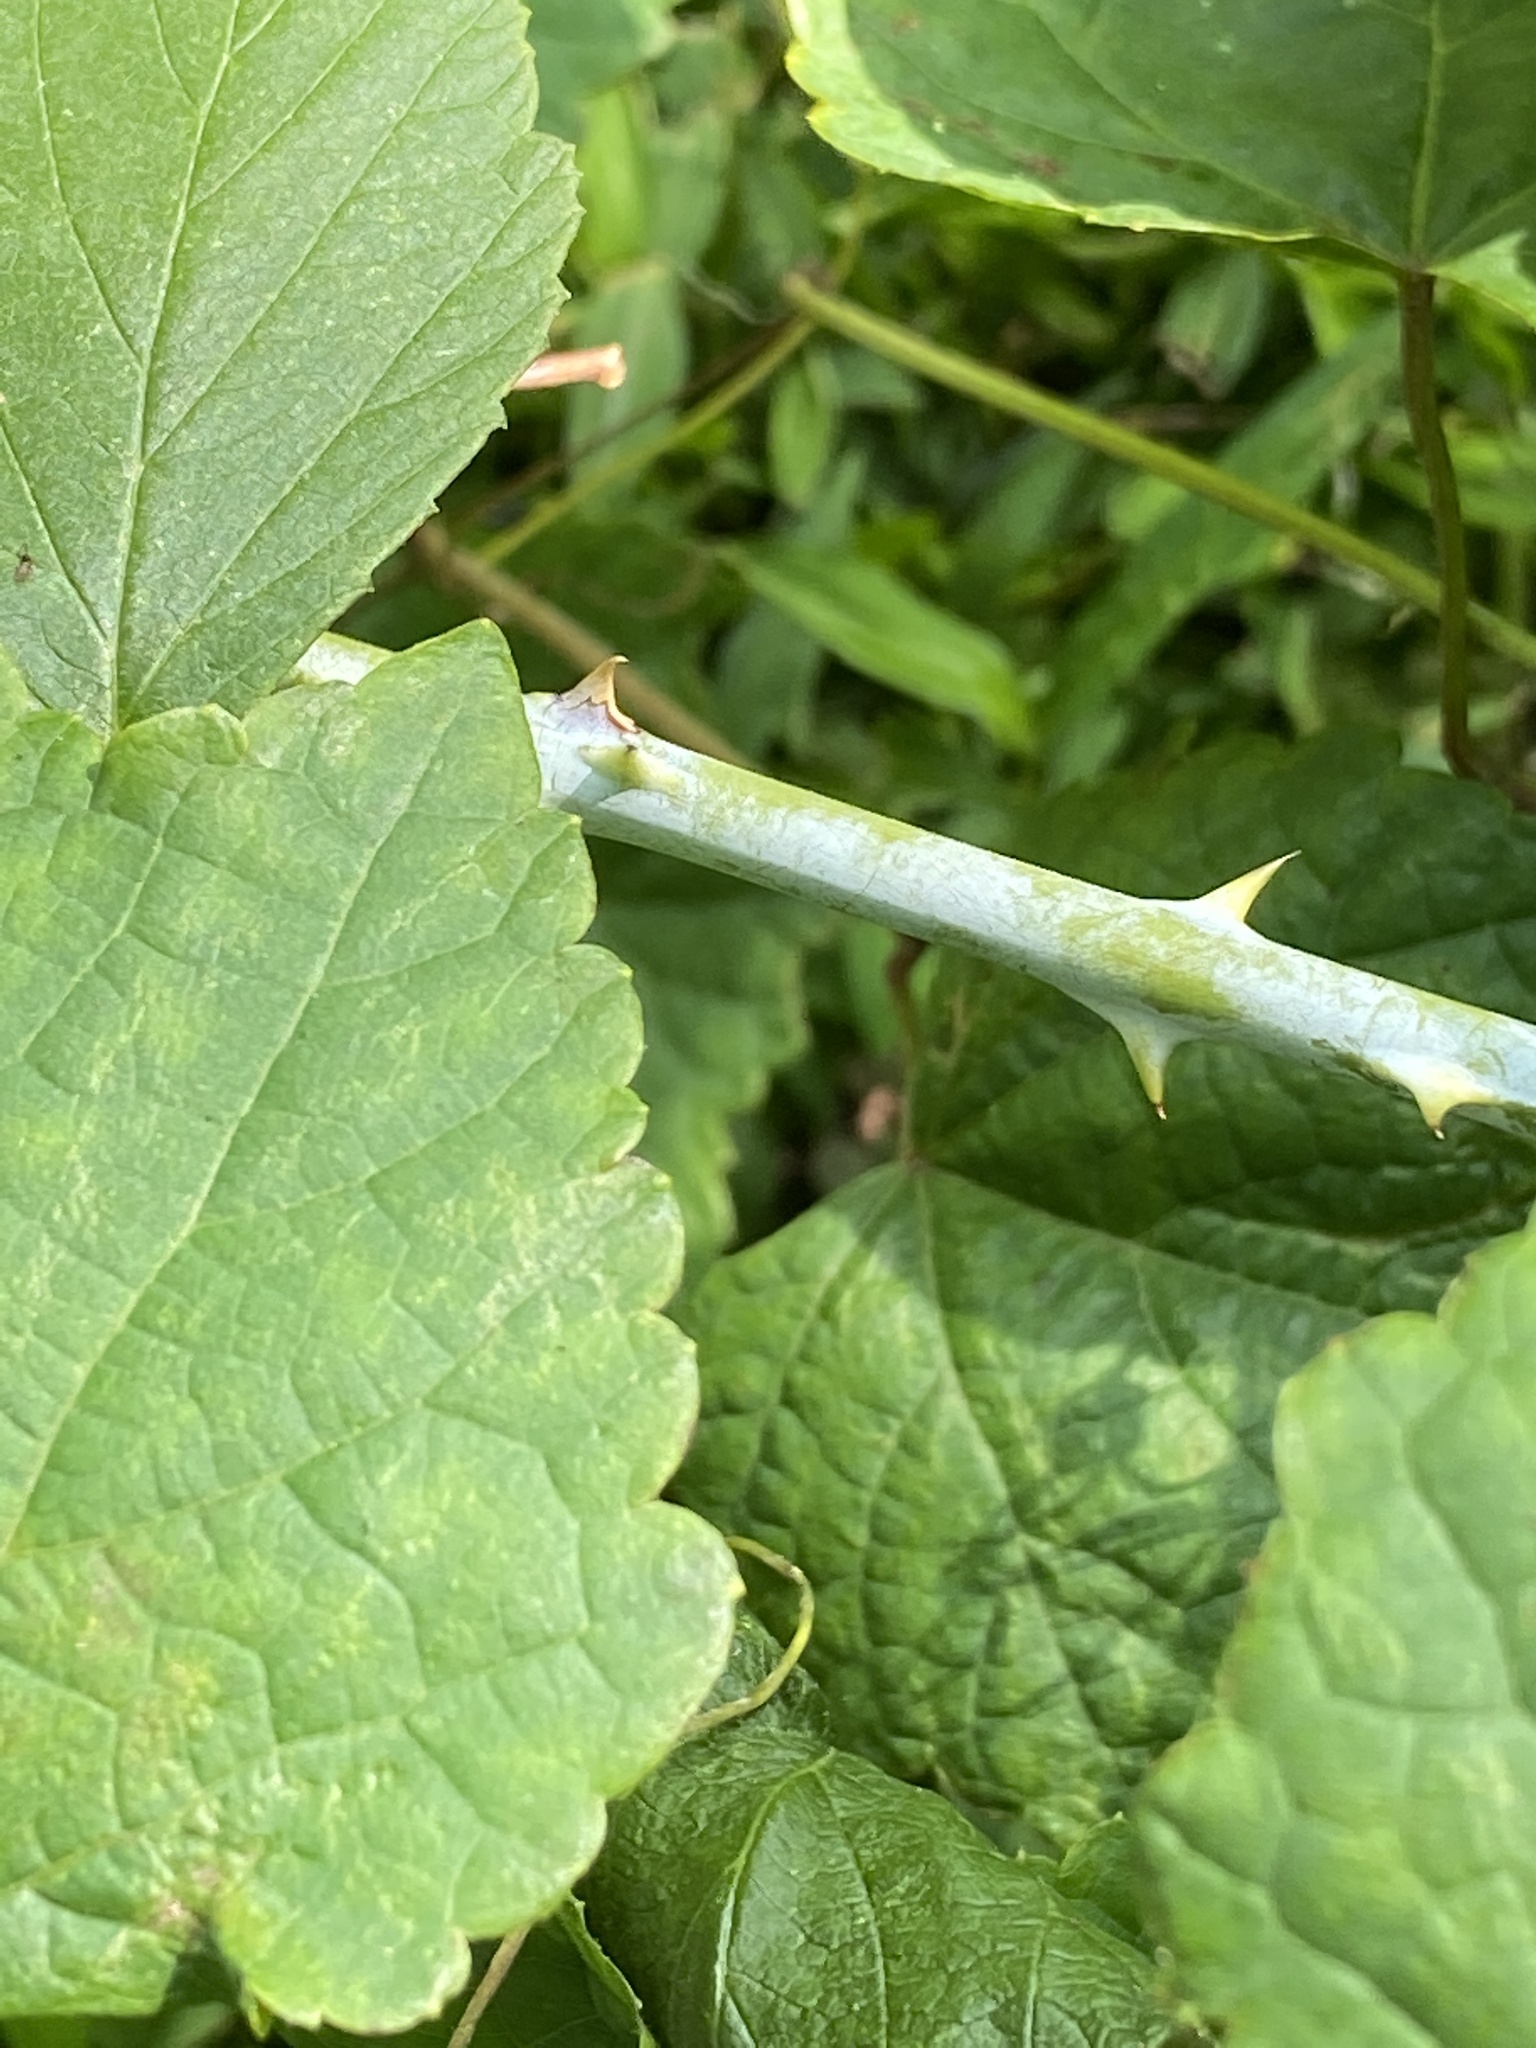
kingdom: Plantae
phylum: Tracheophyta
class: Magnoliopsida
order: Rosales
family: Rosaceae
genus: Rubus
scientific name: Rubus occidentalis
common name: Black raspberry
